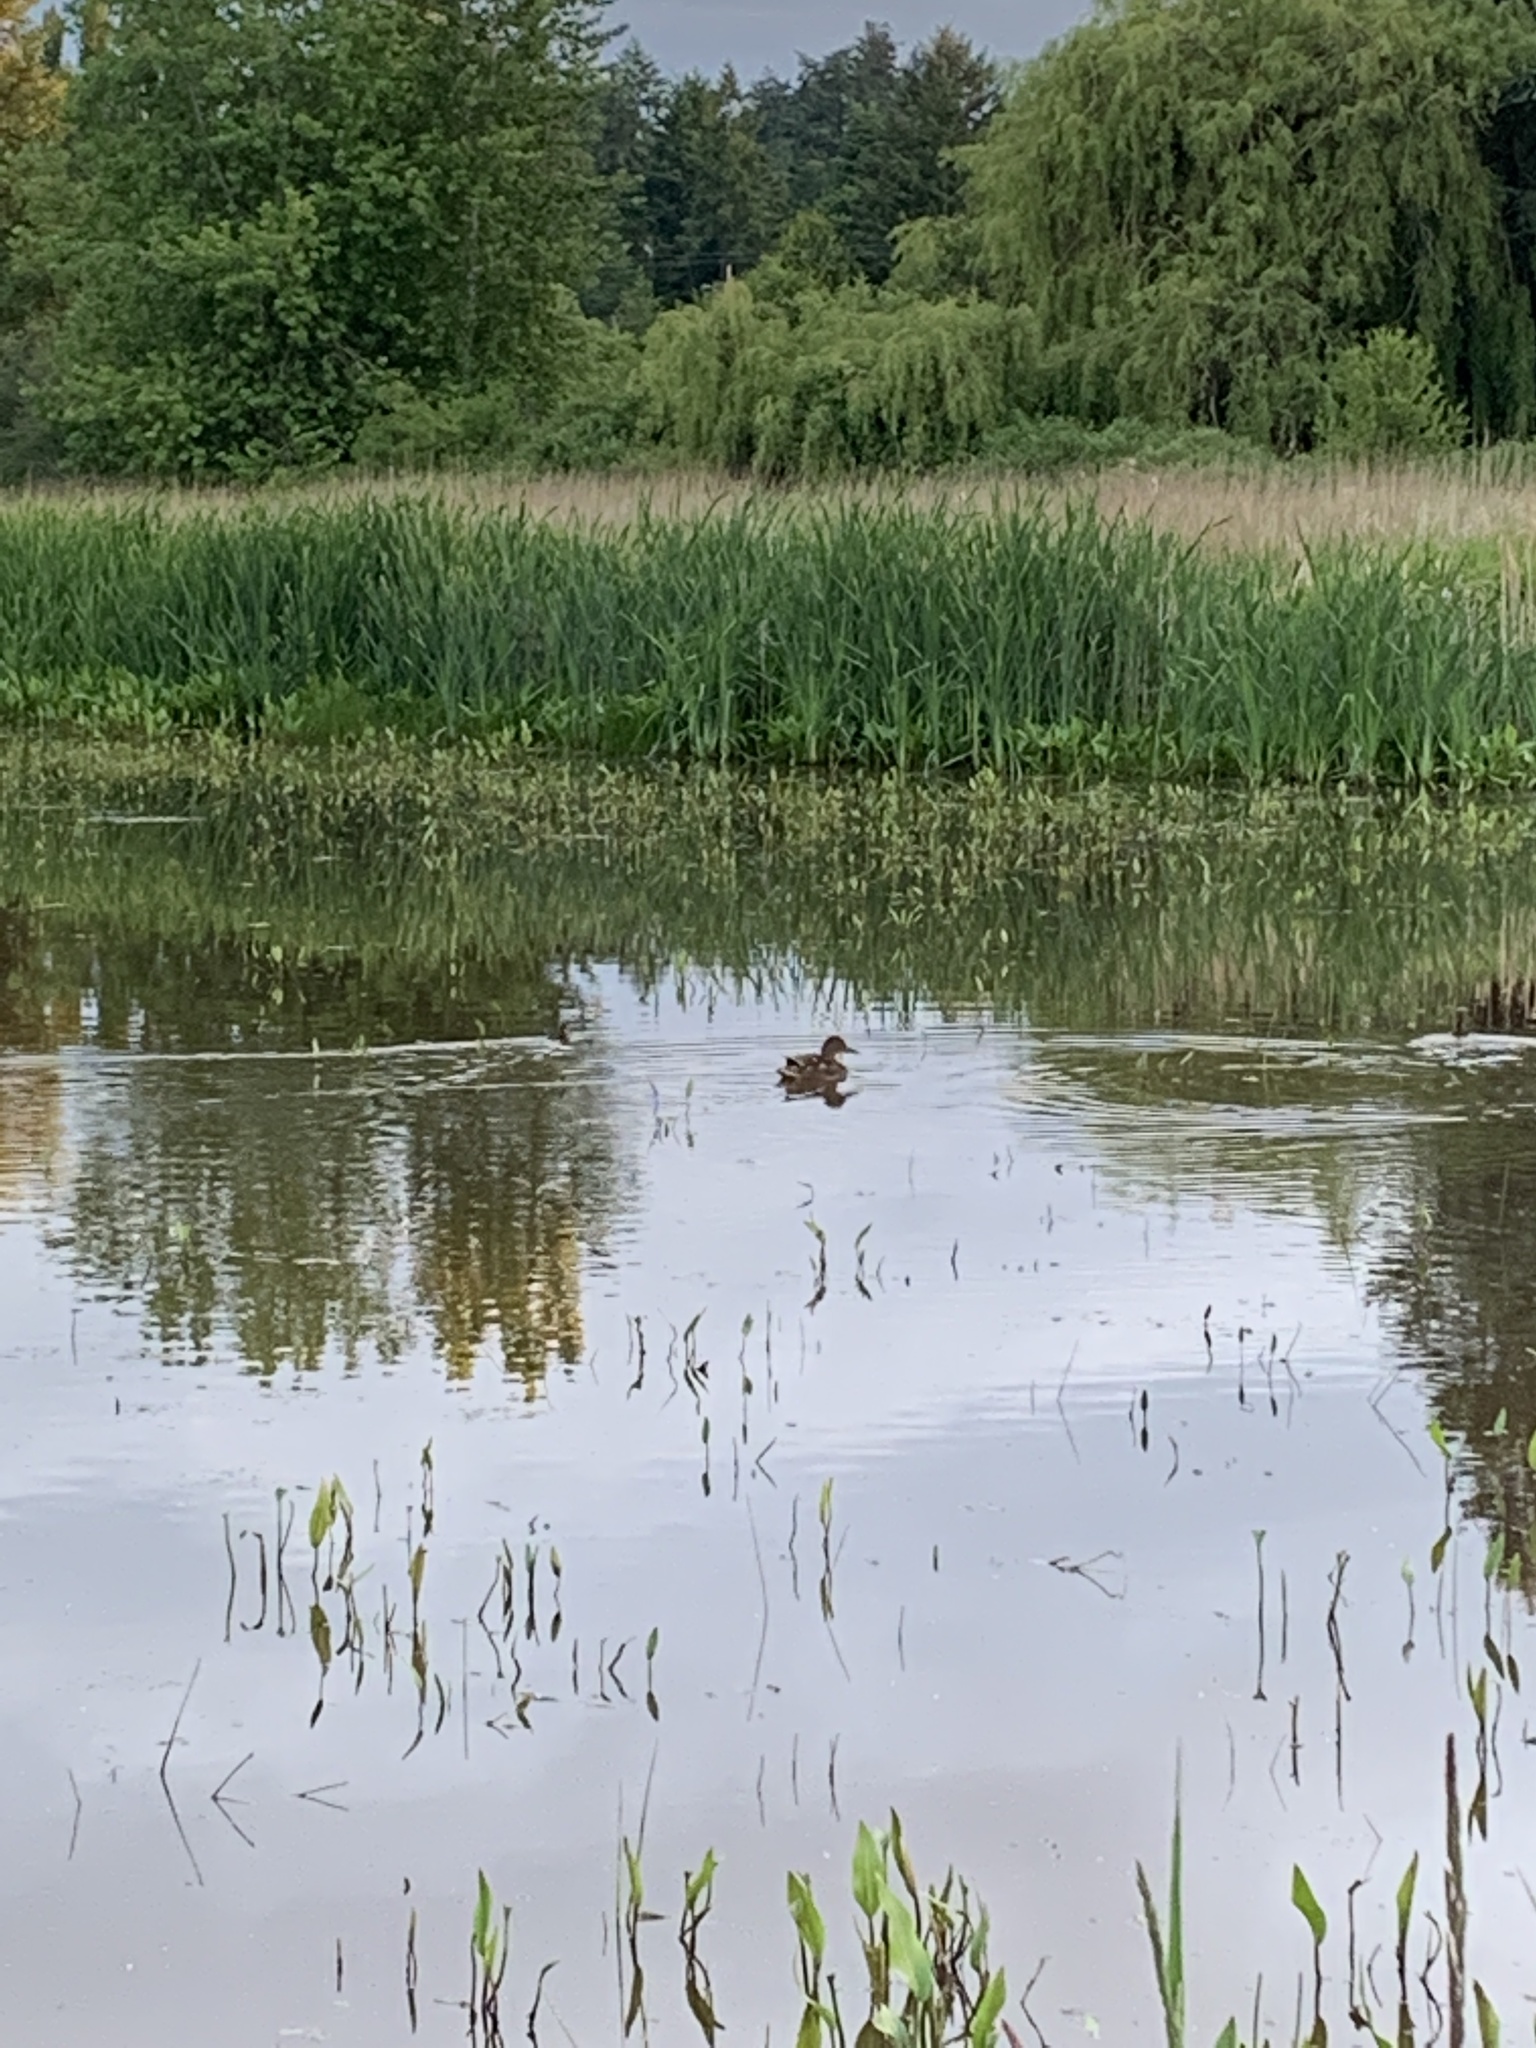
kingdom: Animalia
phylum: Chordata
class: Aves
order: Anseriformes
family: Anatidae
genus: Anas
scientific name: Anas platyrhynchos
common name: Mallard
